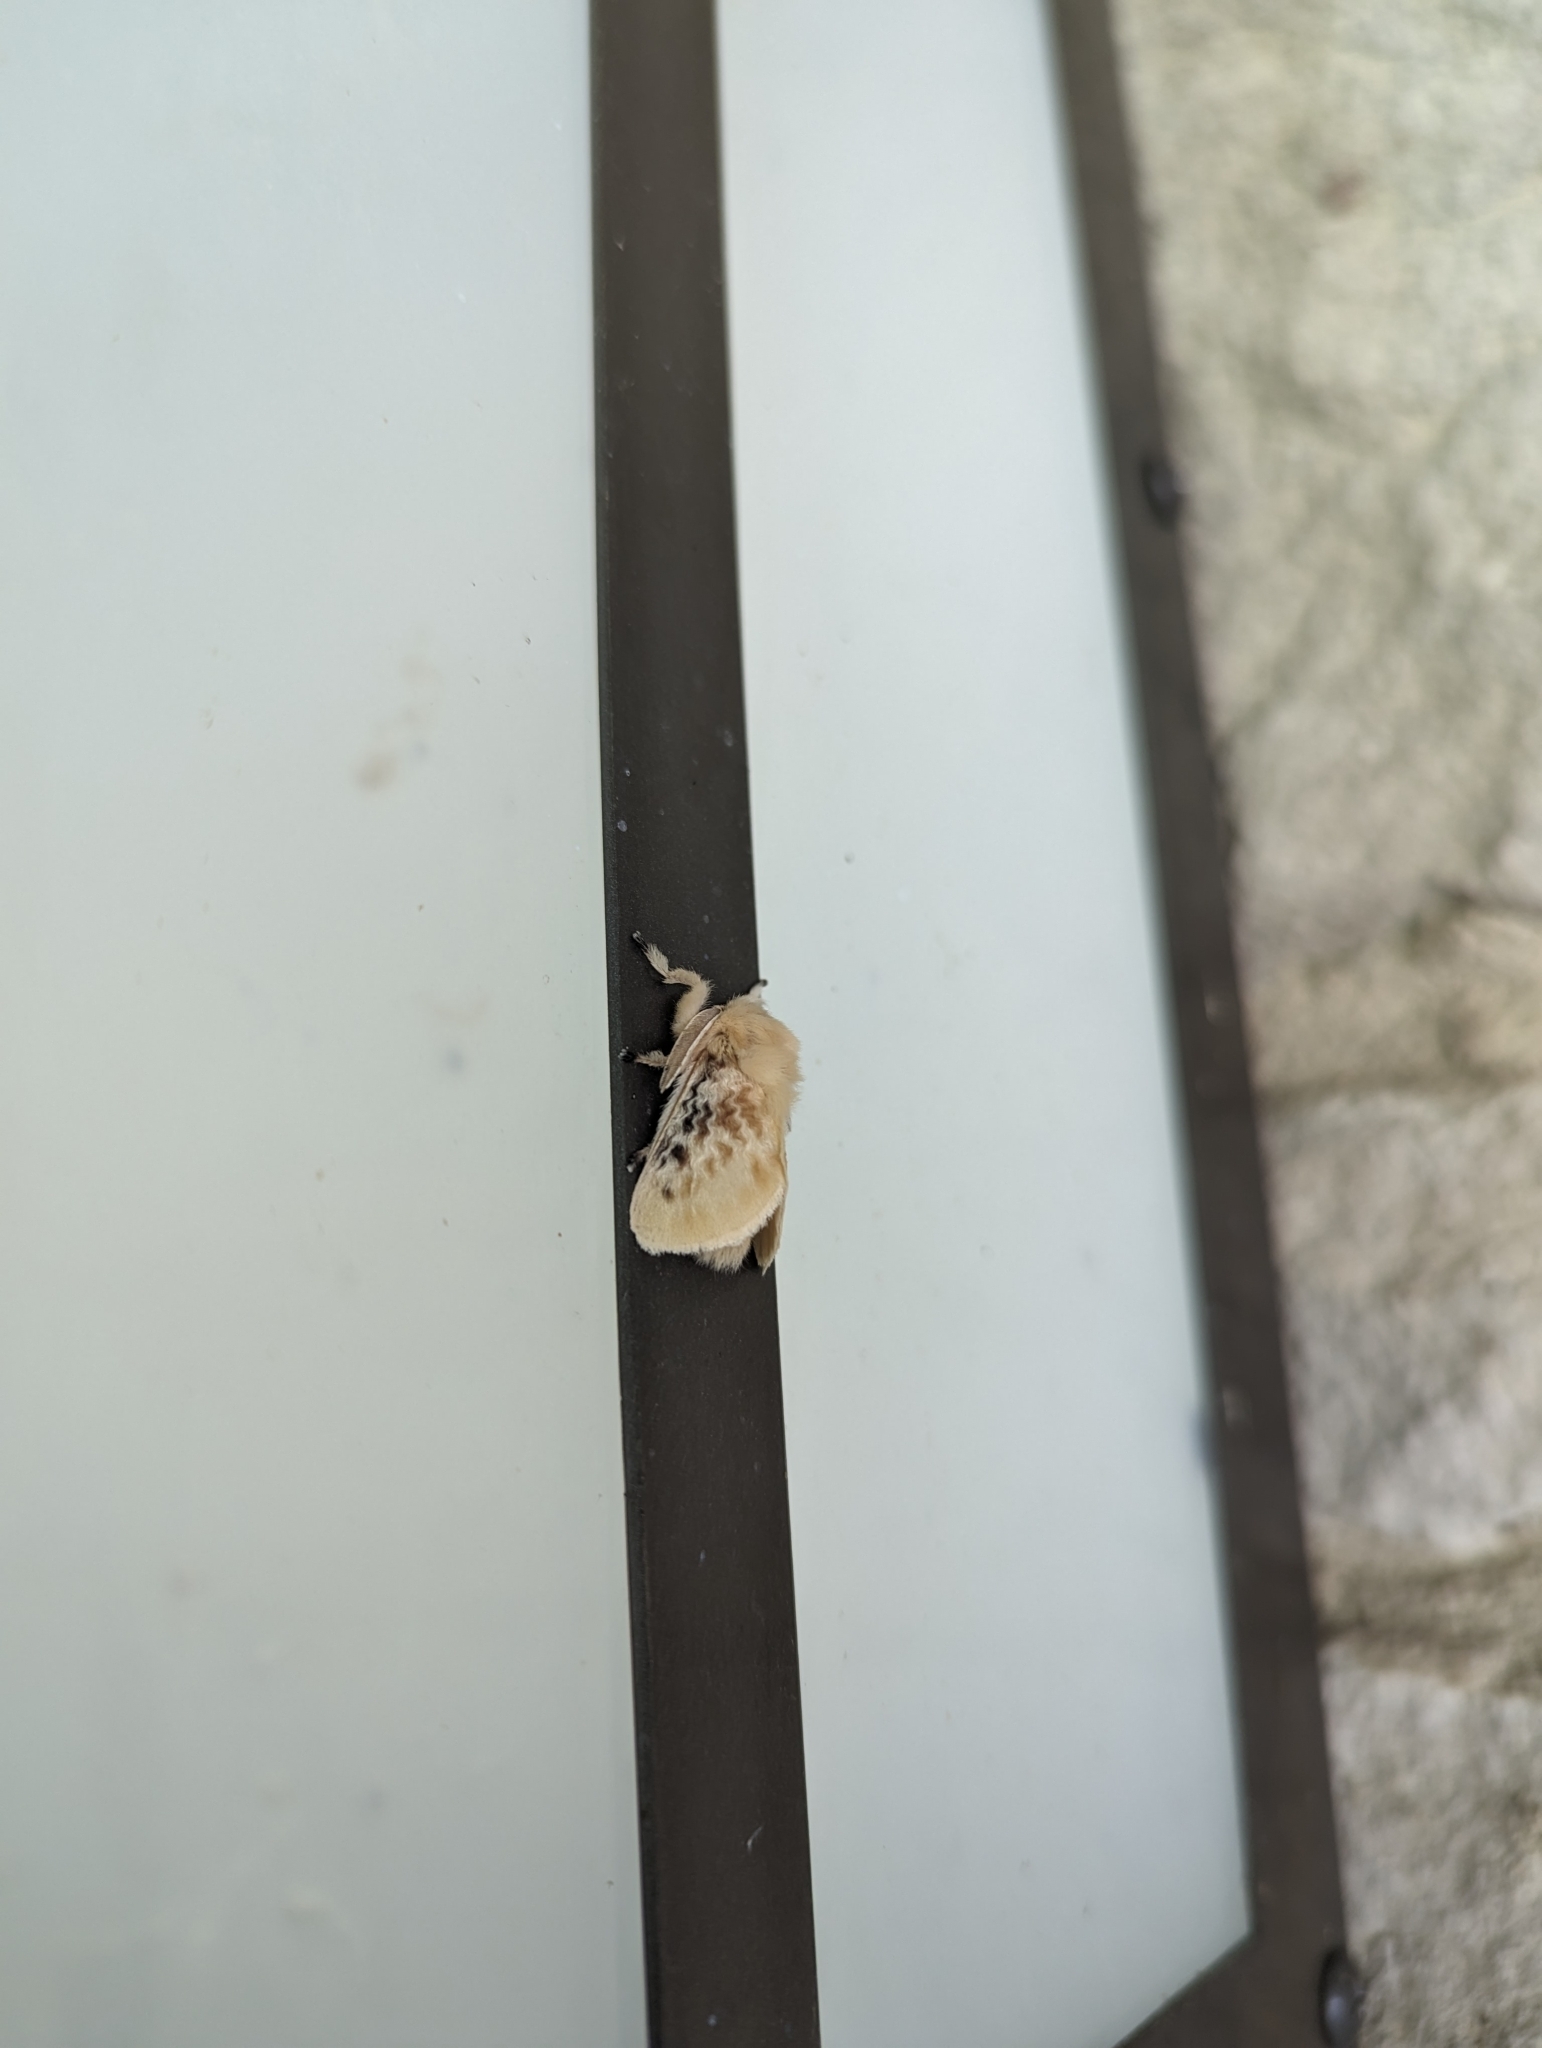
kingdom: Animalia
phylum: Arthropoda
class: Insecta
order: Lepidoptera
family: Megalopygidae
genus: Megalopyge
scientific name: Megalopyge crispata
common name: Black-waved flannel moth
